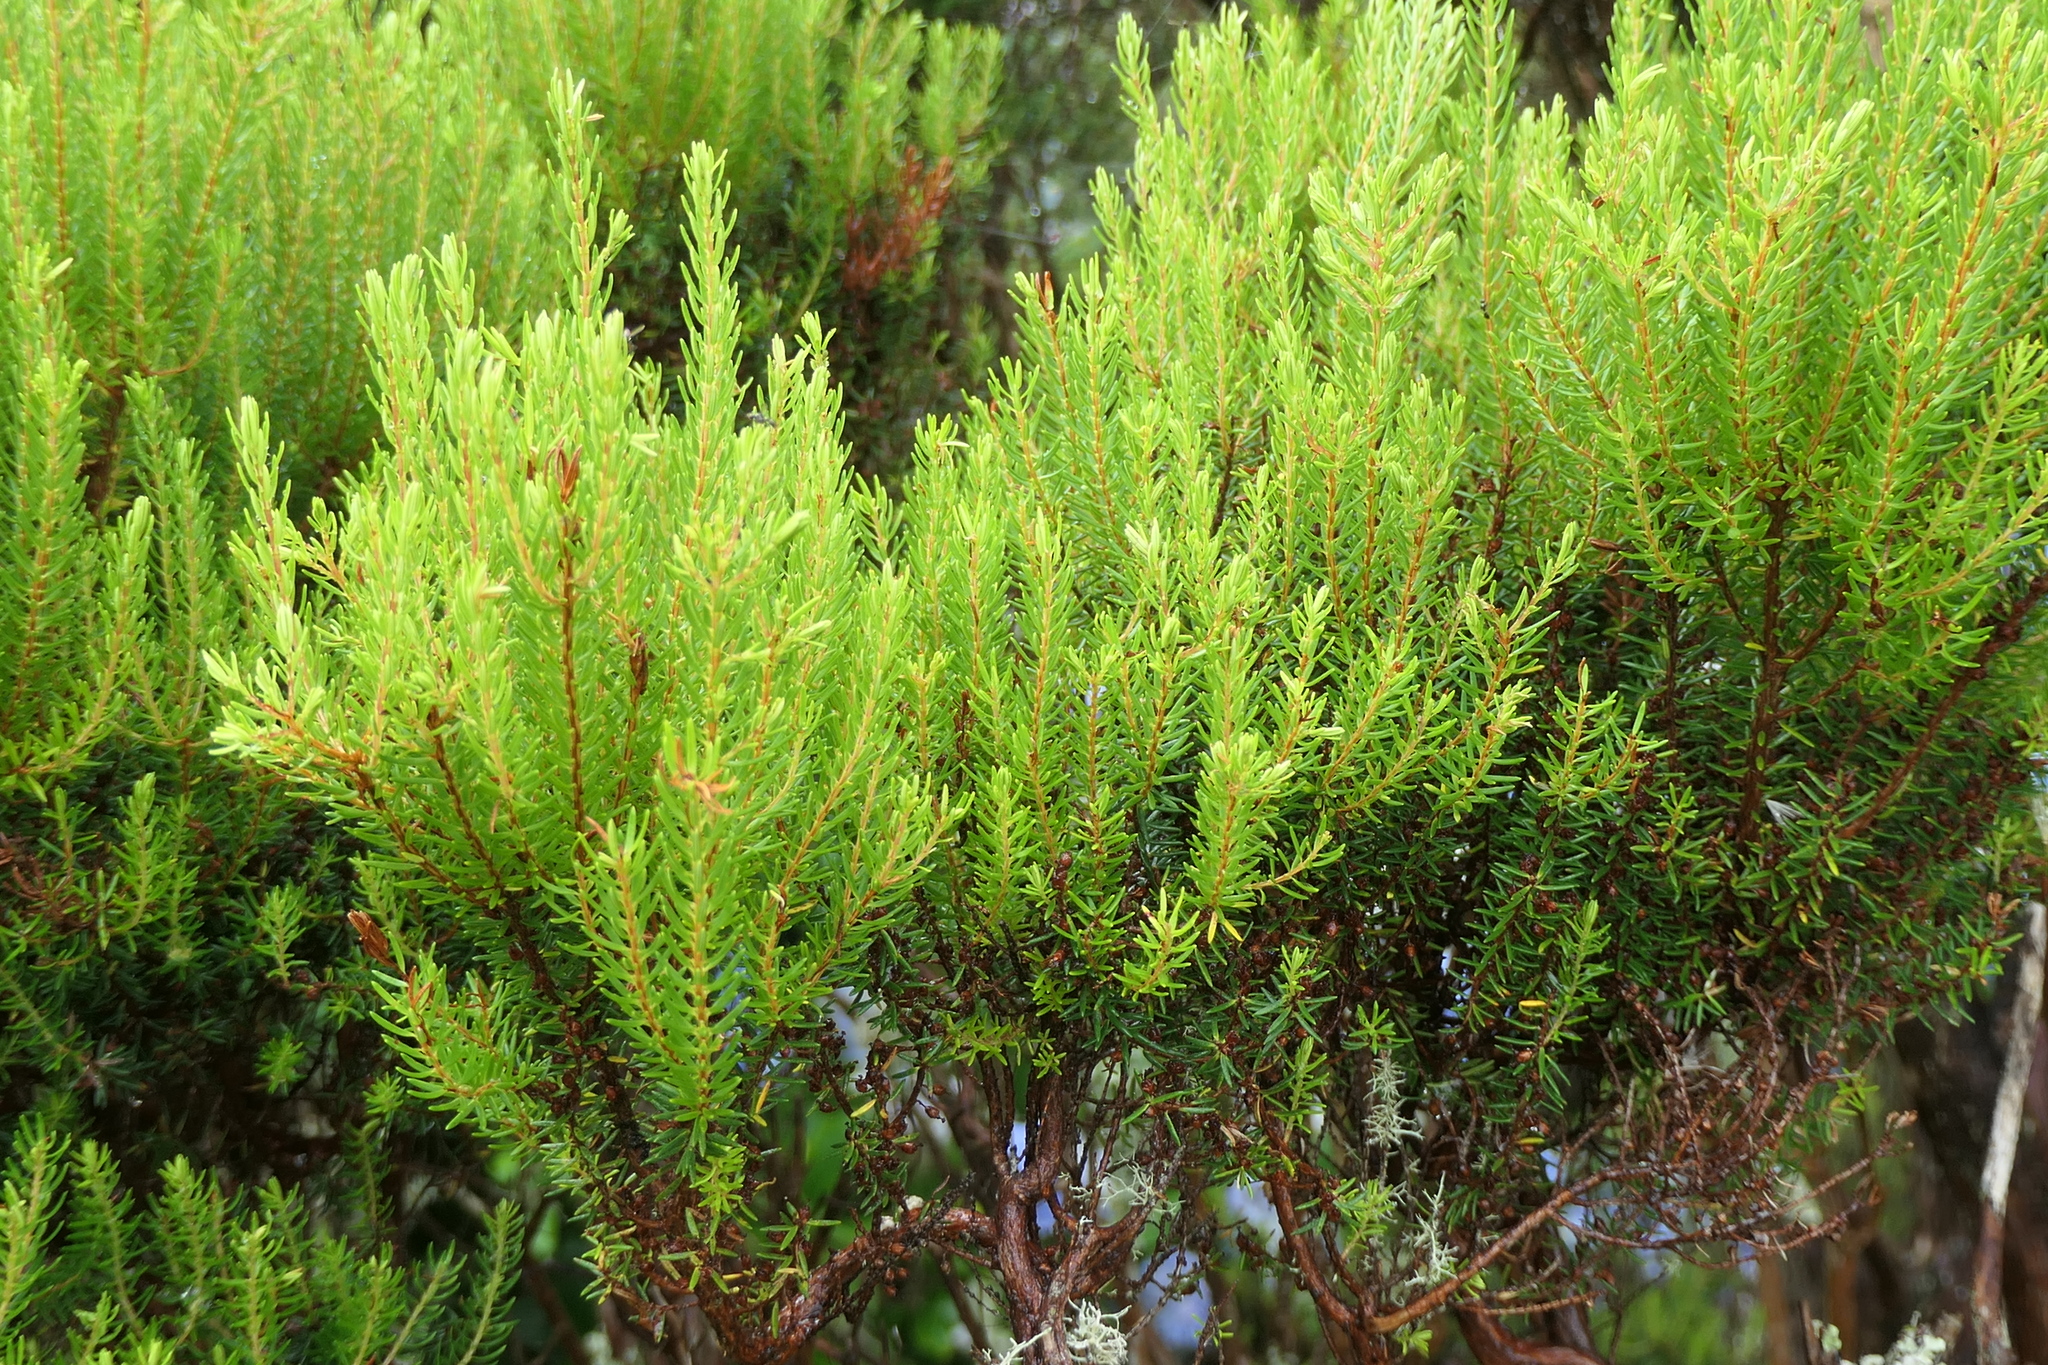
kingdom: Plantae
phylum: Tracheophyta
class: Magnoliopsida
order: Ericales
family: Ericaceae
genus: Erica
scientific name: Erica azorica
